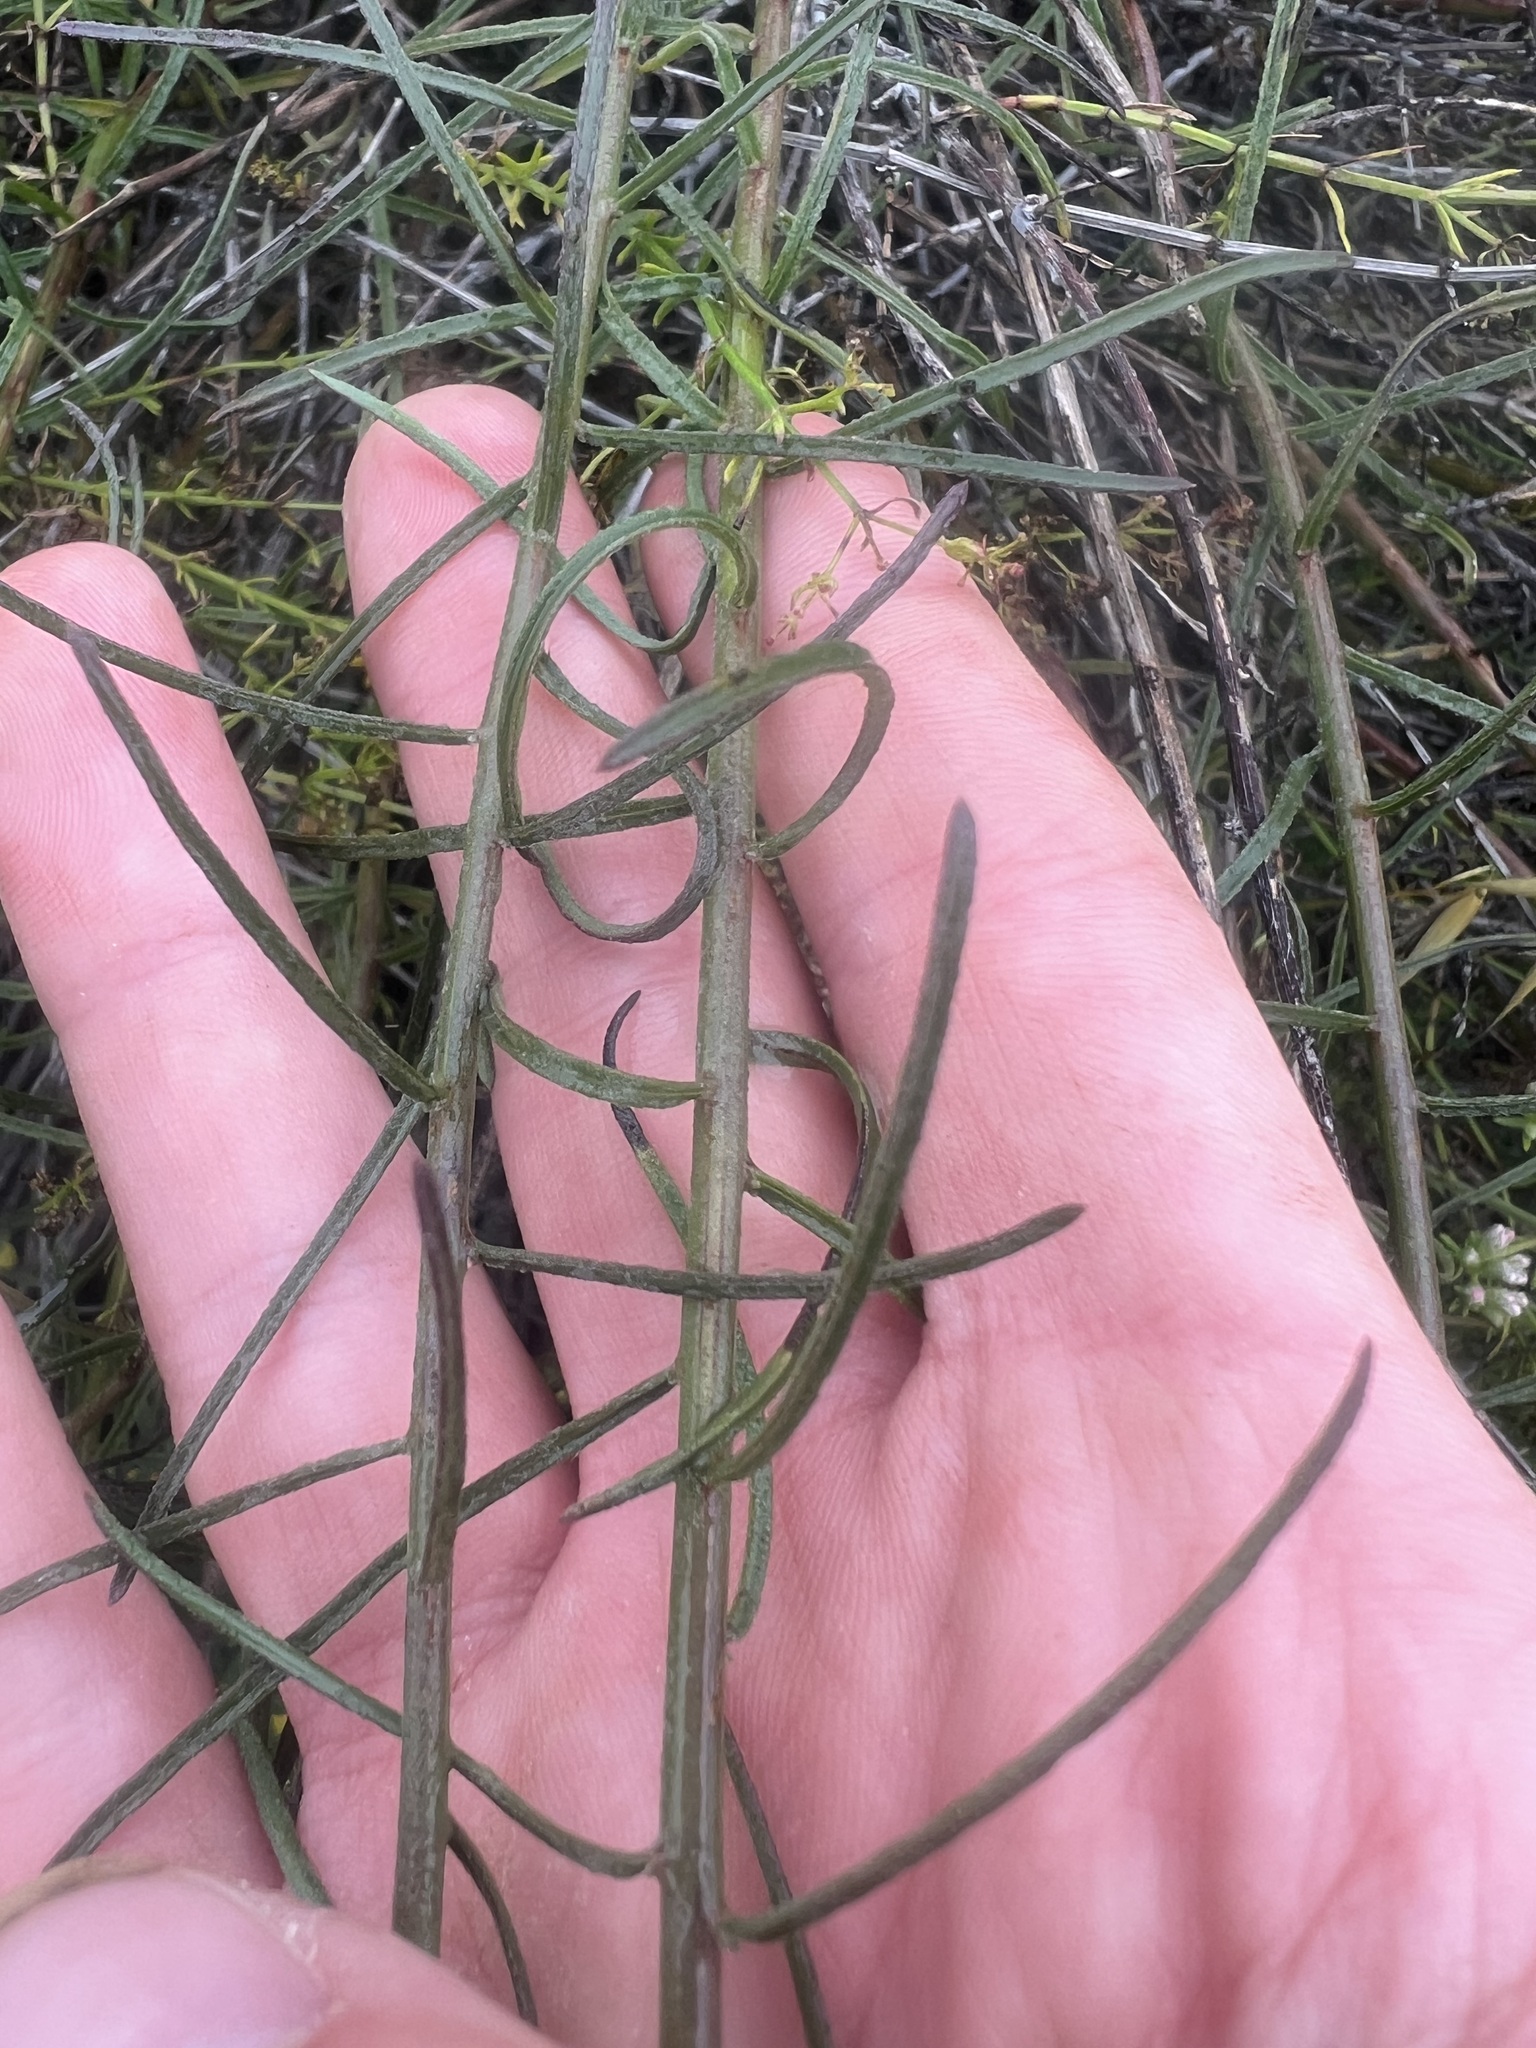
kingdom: Plantae
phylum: Tracheophyta
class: Magnoliopsida
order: Asterales
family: Asteraceae
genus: Erigeron
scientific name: Erigeron foliosus
